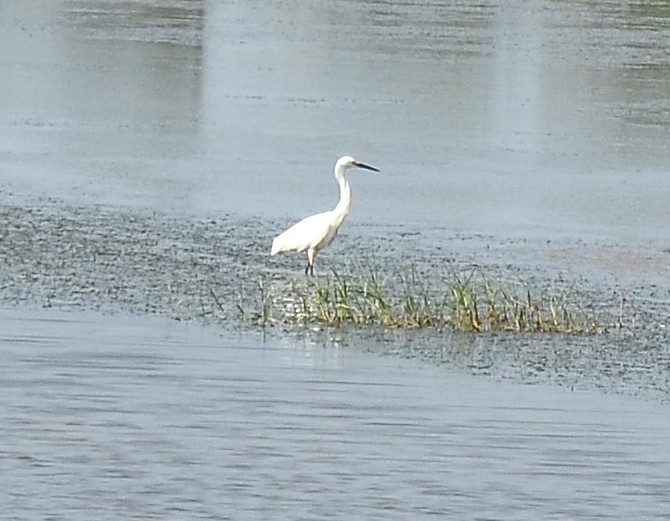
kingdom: Animalia
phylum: Chordata
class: Aves
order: Pelecaniformes
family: Ardeidae
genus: Egretta
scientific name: Egretta garzetta
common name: Little egret
